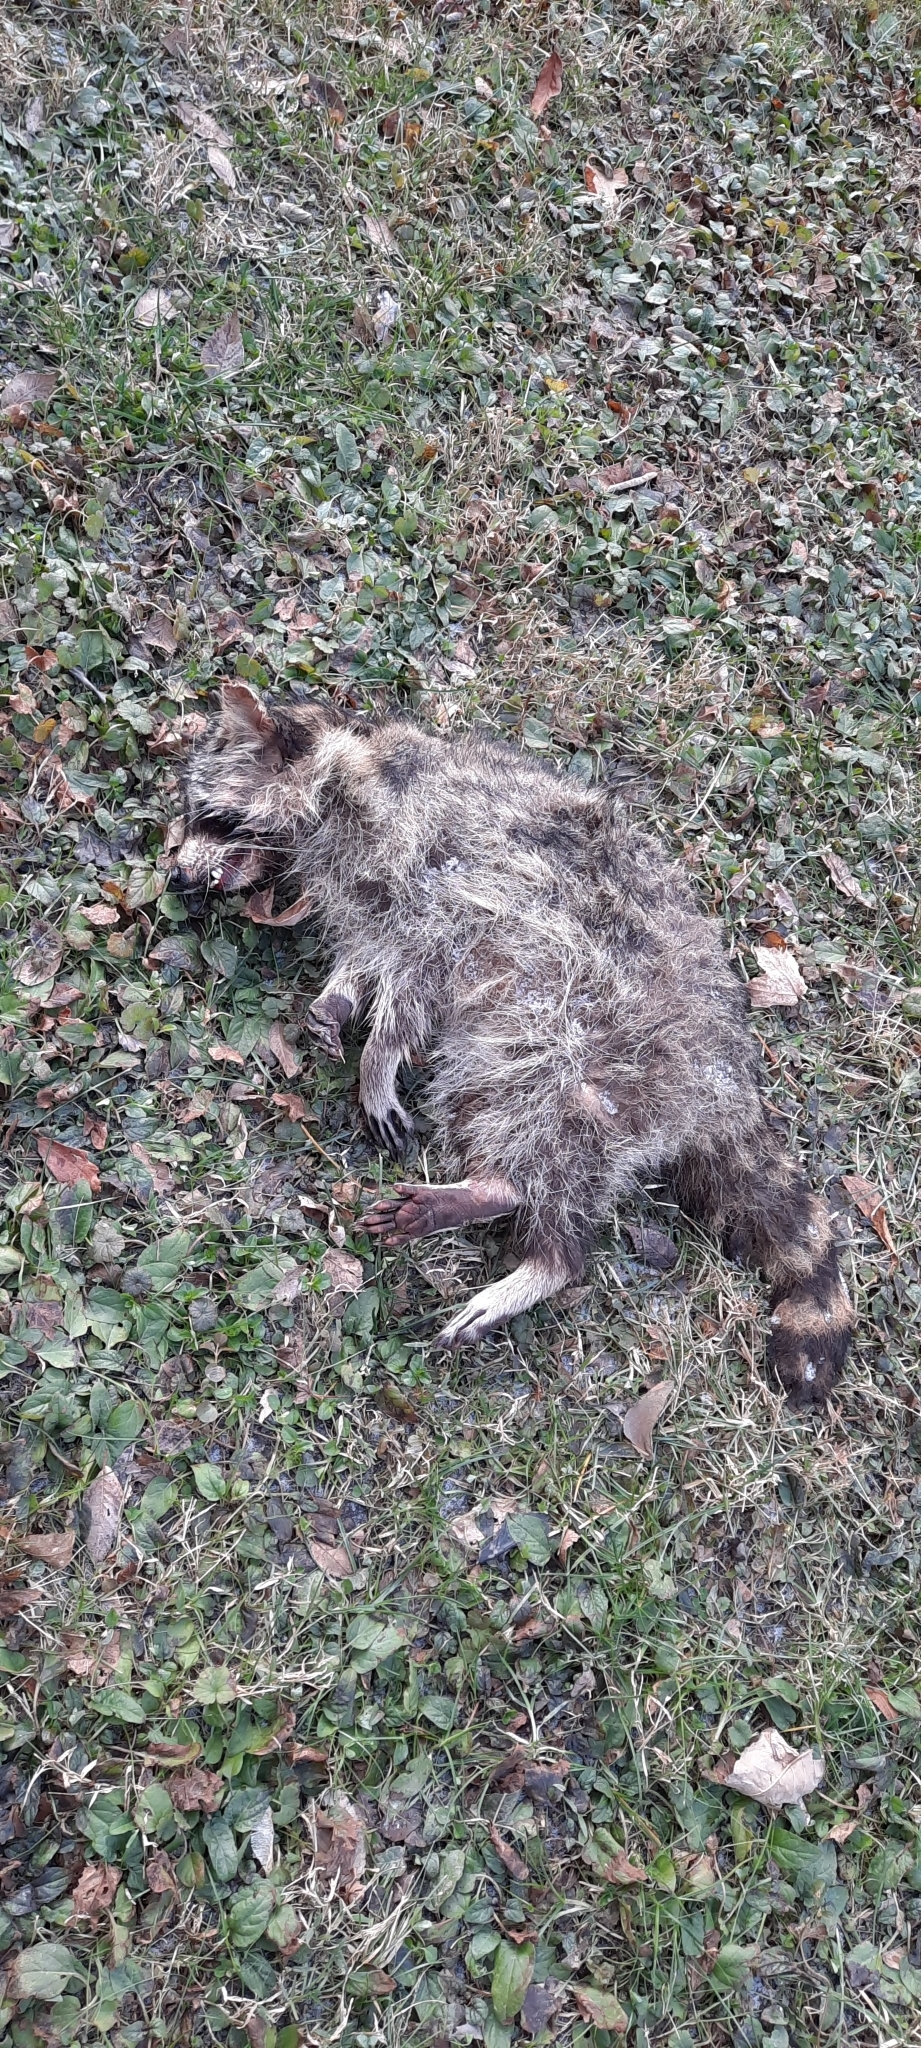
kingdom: Animalia
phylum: Chordata
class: Mammalia
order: Carnivora
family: Procyonidae
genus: Procyon
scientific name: Procyon lotor
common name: Raccoon
